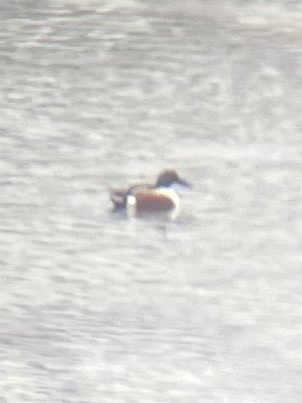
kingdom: Animalia
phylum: Chordata
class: Aves
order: Anseriformes
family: Anatidae
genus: Spatula
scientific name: Spatula clypeata
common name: Northern shoveler
